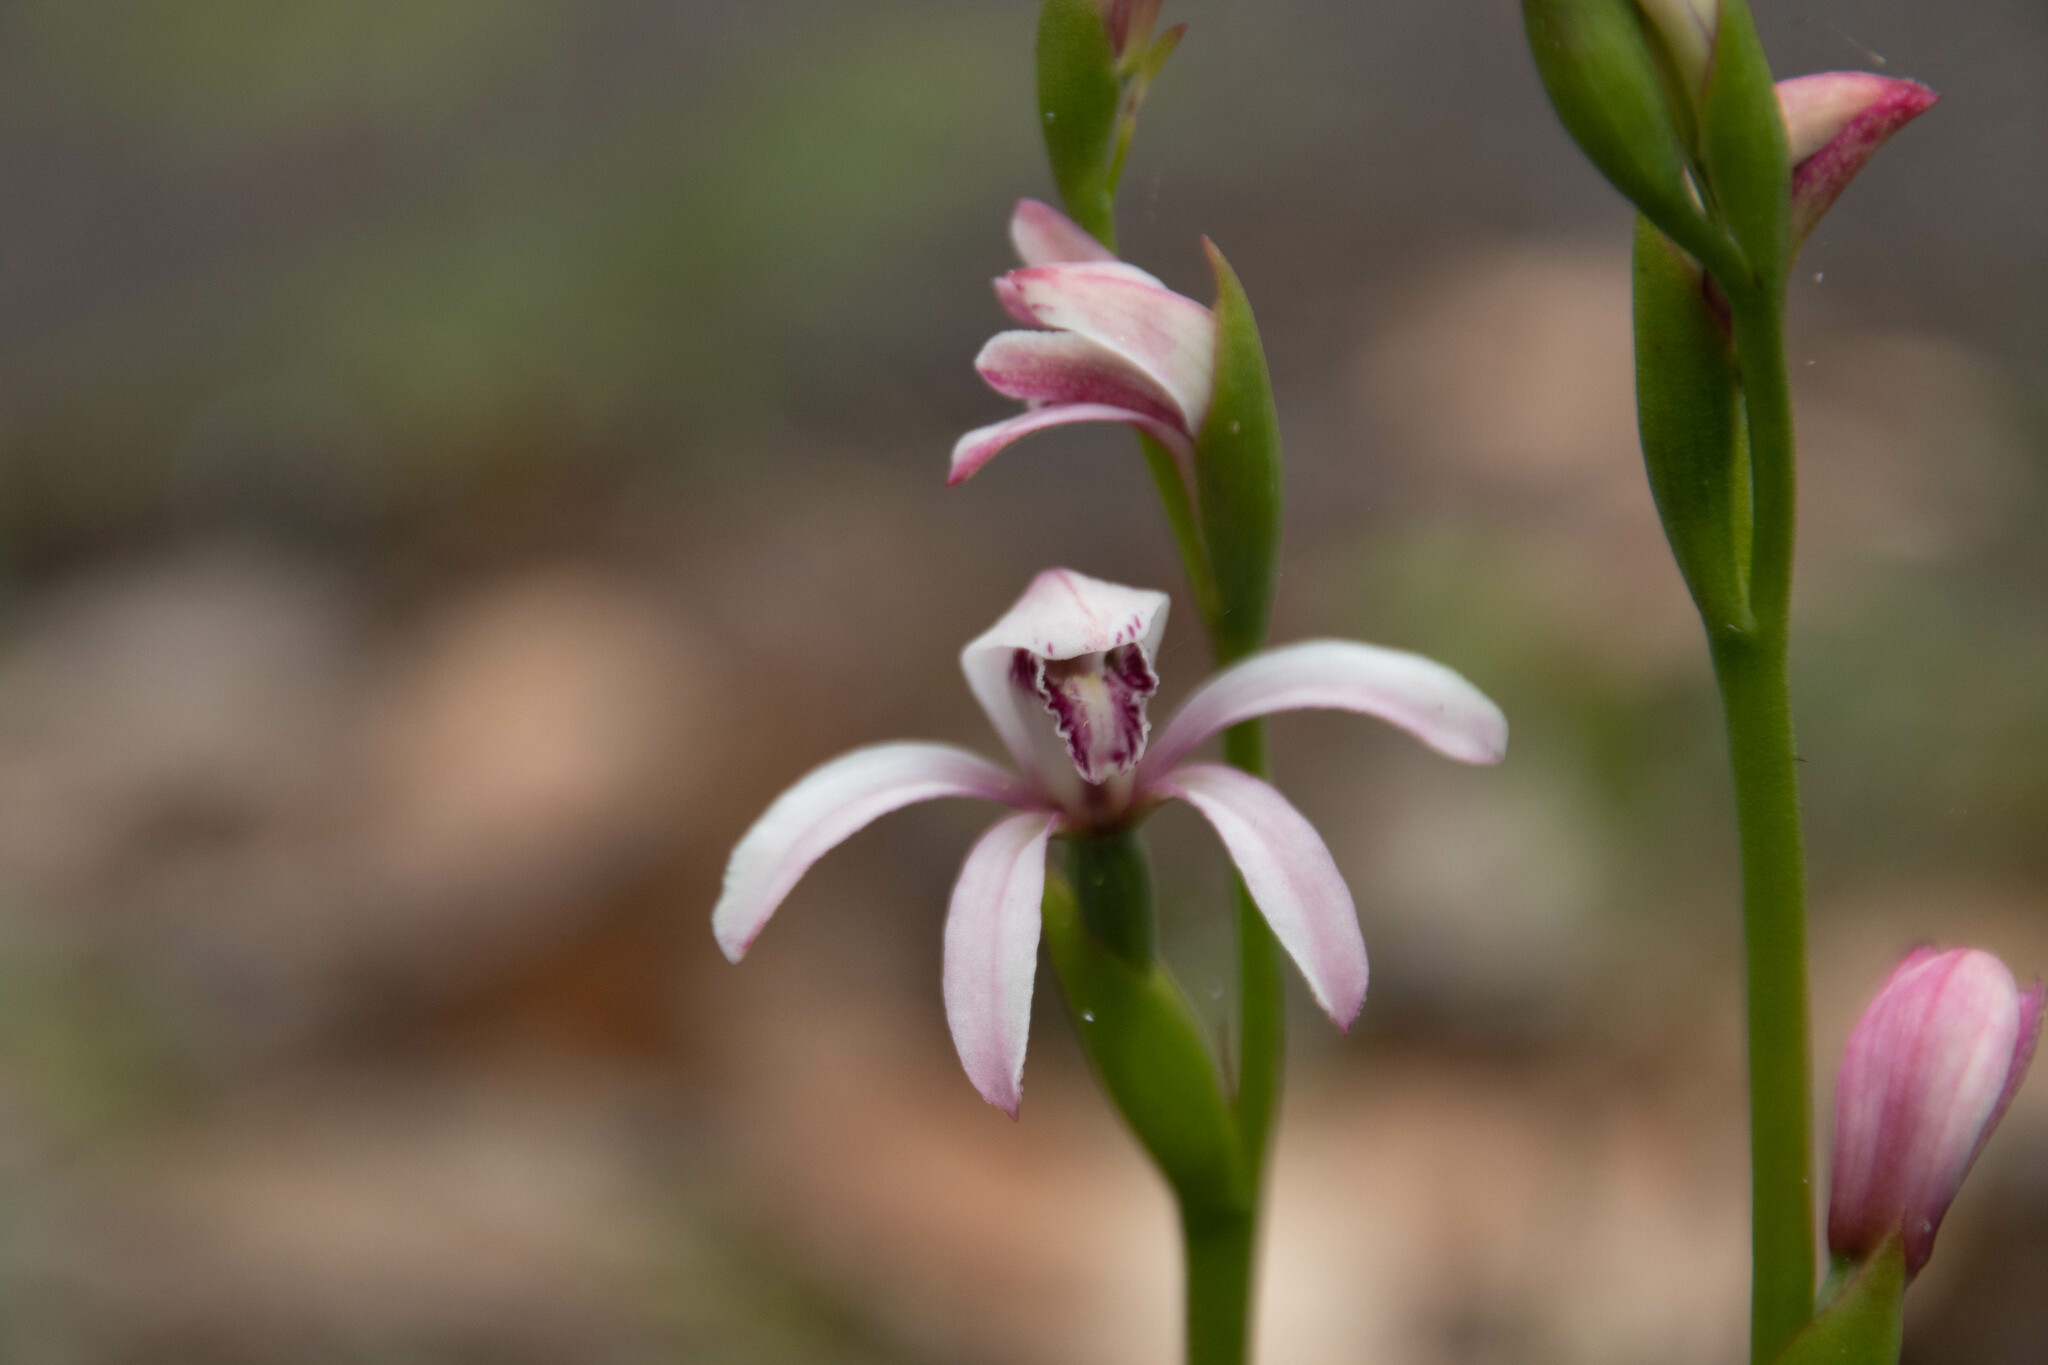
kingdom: Plantae
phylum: Tracheophyta
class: Liliopsida
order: Asparagales
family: Orchidaceae
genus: Pyrorchis
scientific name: Pyrorchis forrestii
